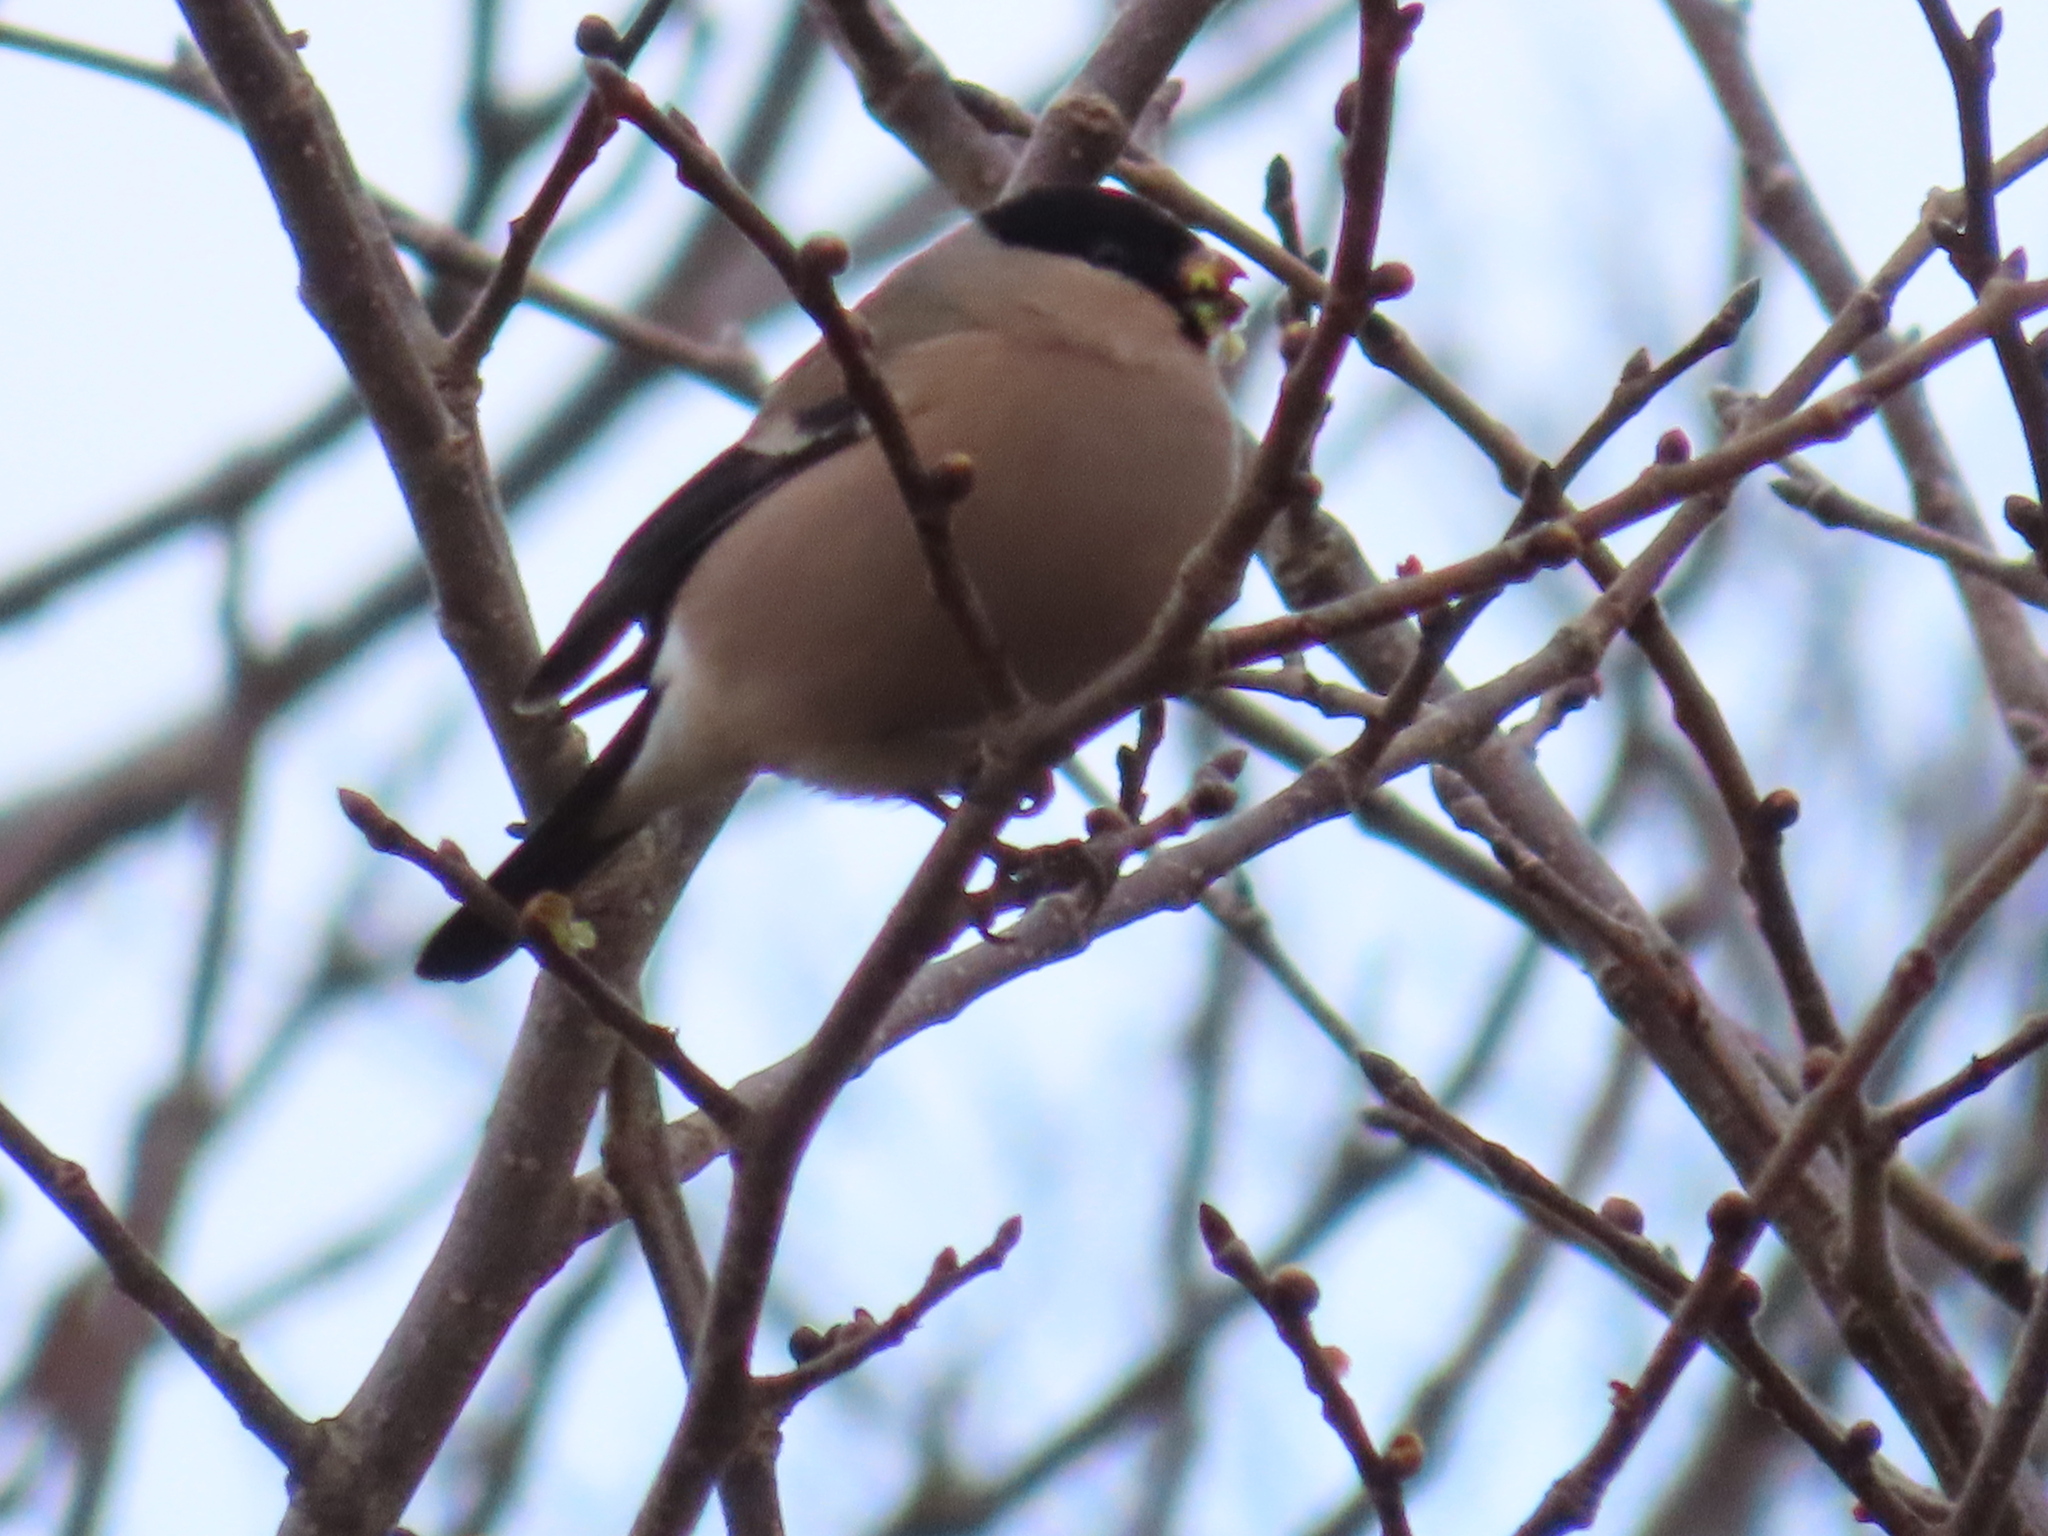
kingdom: Animalia
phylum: Chordata
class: Aves
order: Passeriformes
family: Fringillidae
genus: Pyrrhula
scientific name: Pyrrhula pyrrhula
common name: Eurasian bullfinch
